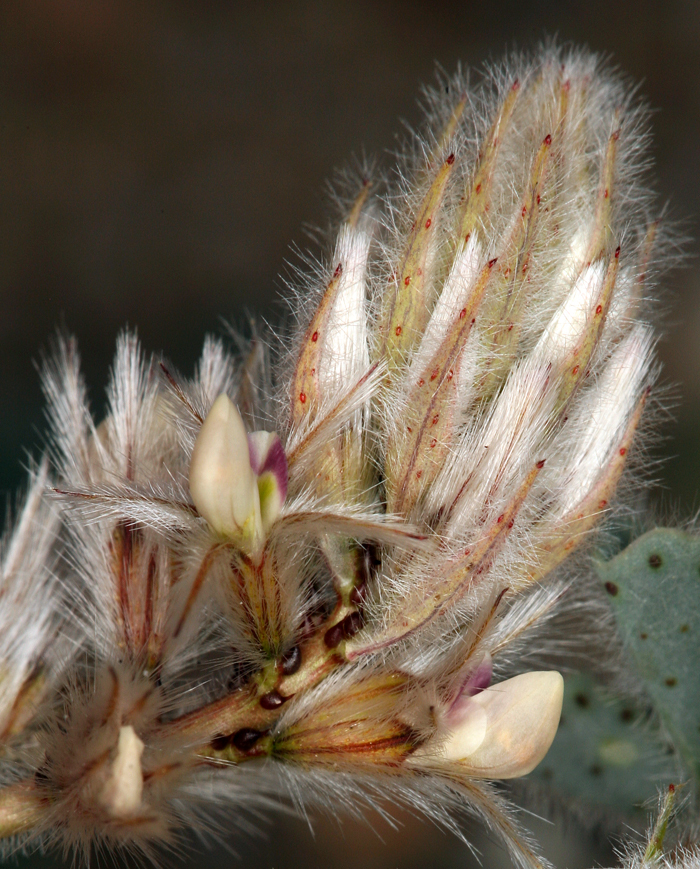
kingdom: Plantae
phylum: Tracheophyta
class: Magnoliopsida
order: Fabales
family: Fabaceae
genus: Dalea
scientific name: Dalea mollissima
